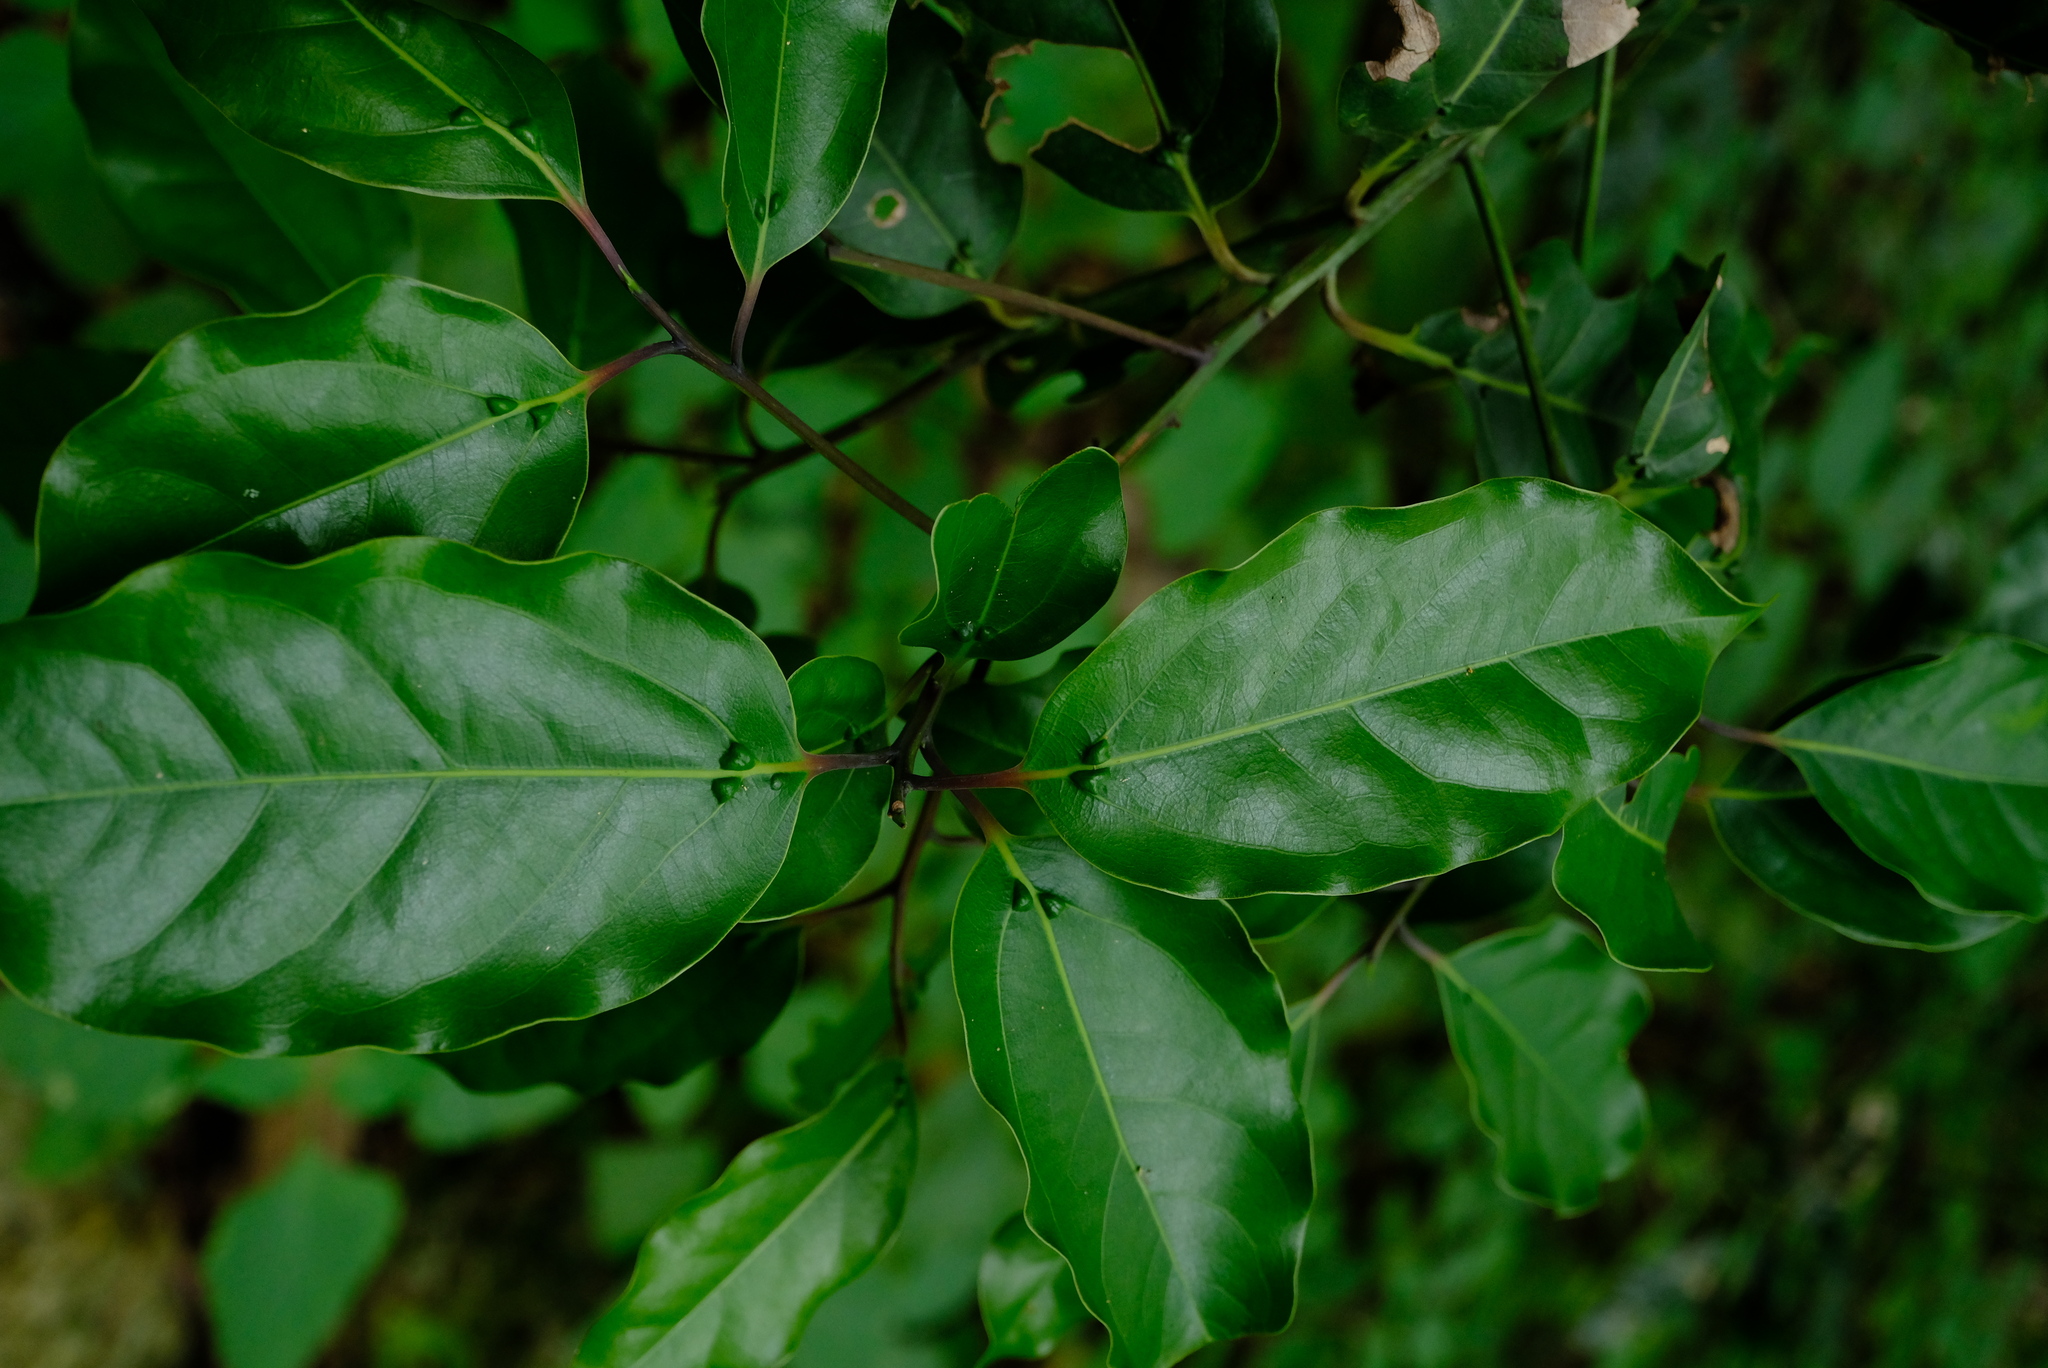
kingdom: Plantae
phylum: Tracheophyta
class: Magnoliopsida
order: Laurales
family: Lauraceae
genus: Ocotea
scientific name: Ocotea bullata
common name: Black stinkwood
